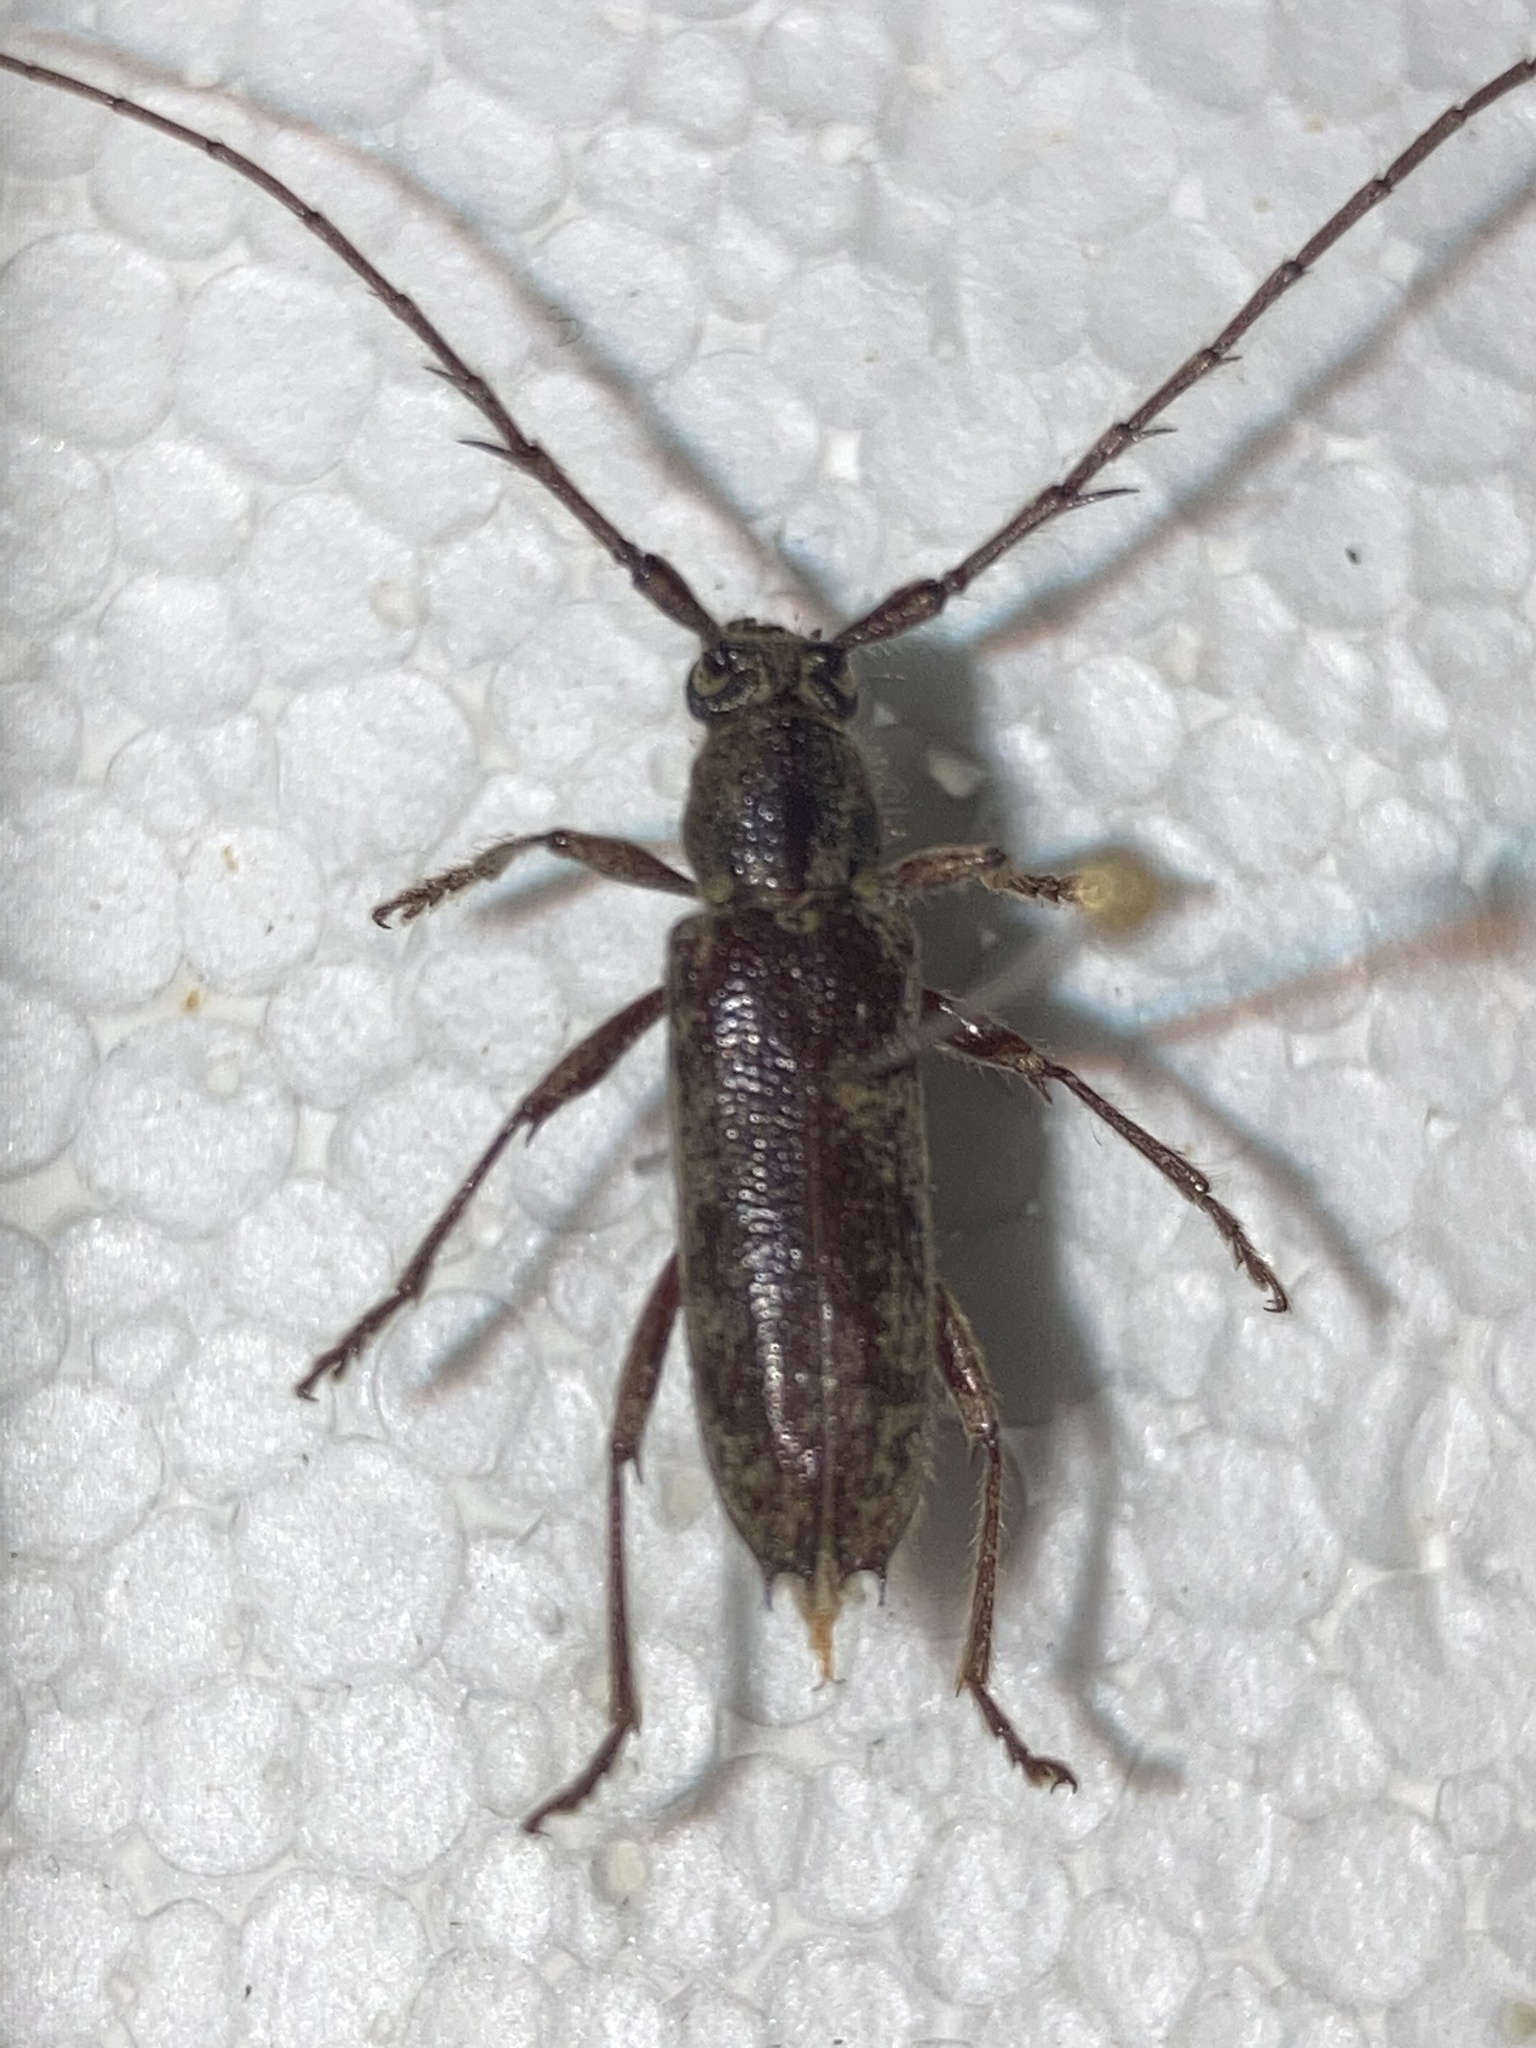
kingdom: Animalia
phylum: Arthropoda
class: Insecta
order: Coleoptera
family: Cerambycidae
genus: Elaphidion
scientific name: Elaphidion mucronatum
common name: Spined oak borer
